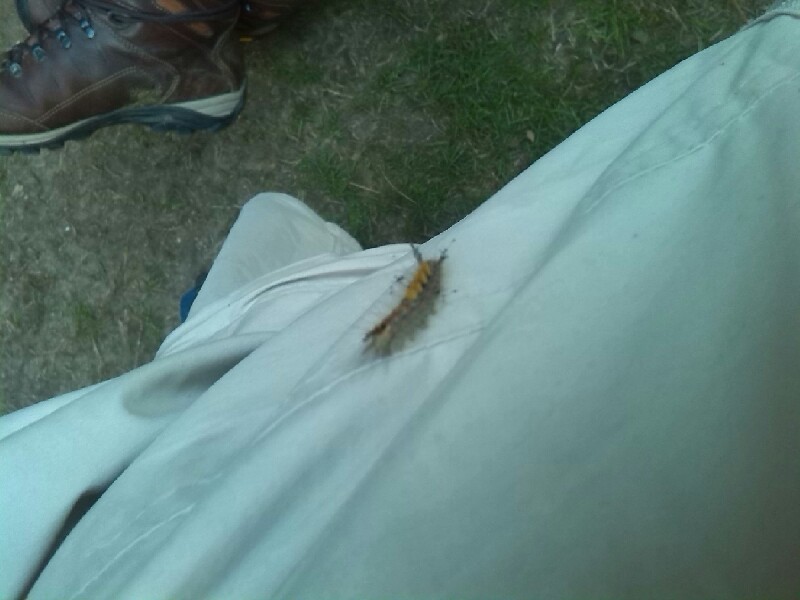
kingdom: Animalia
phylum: Arthropoda
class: Insecta
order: Lepidoptera
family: Erebidae
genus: Orgyia
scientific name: Orgyia antiqua
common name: Vapourer
